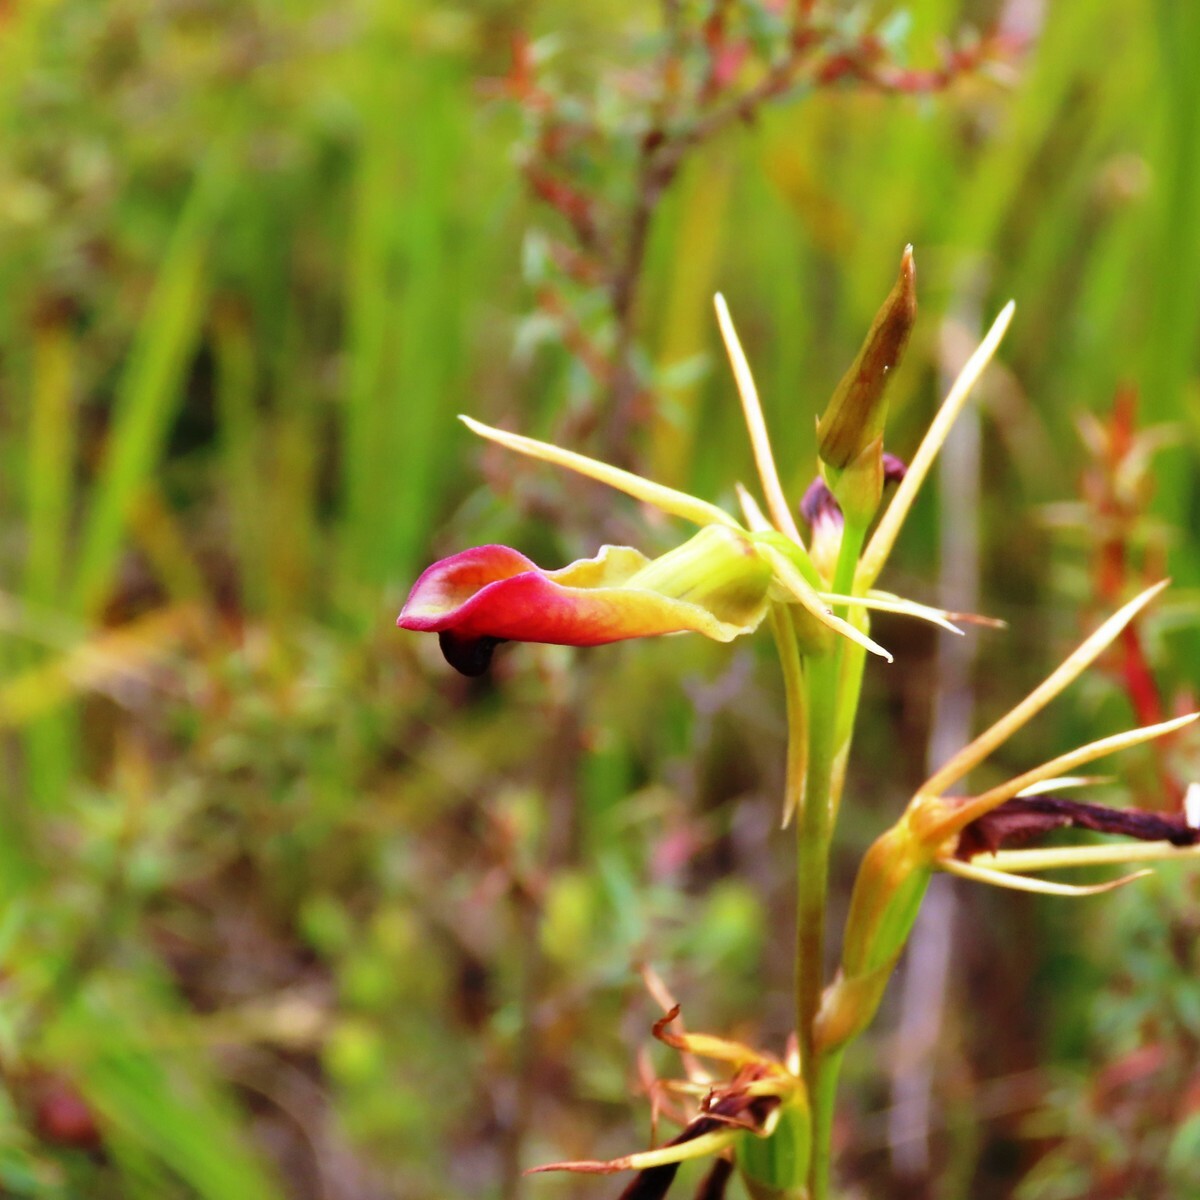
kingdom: Plantae
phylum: Tracheophyta
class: Liliopsida
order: Asparagales
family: Orchidaceae
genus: Cryptostylis
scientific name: Cryptostylis subulata
